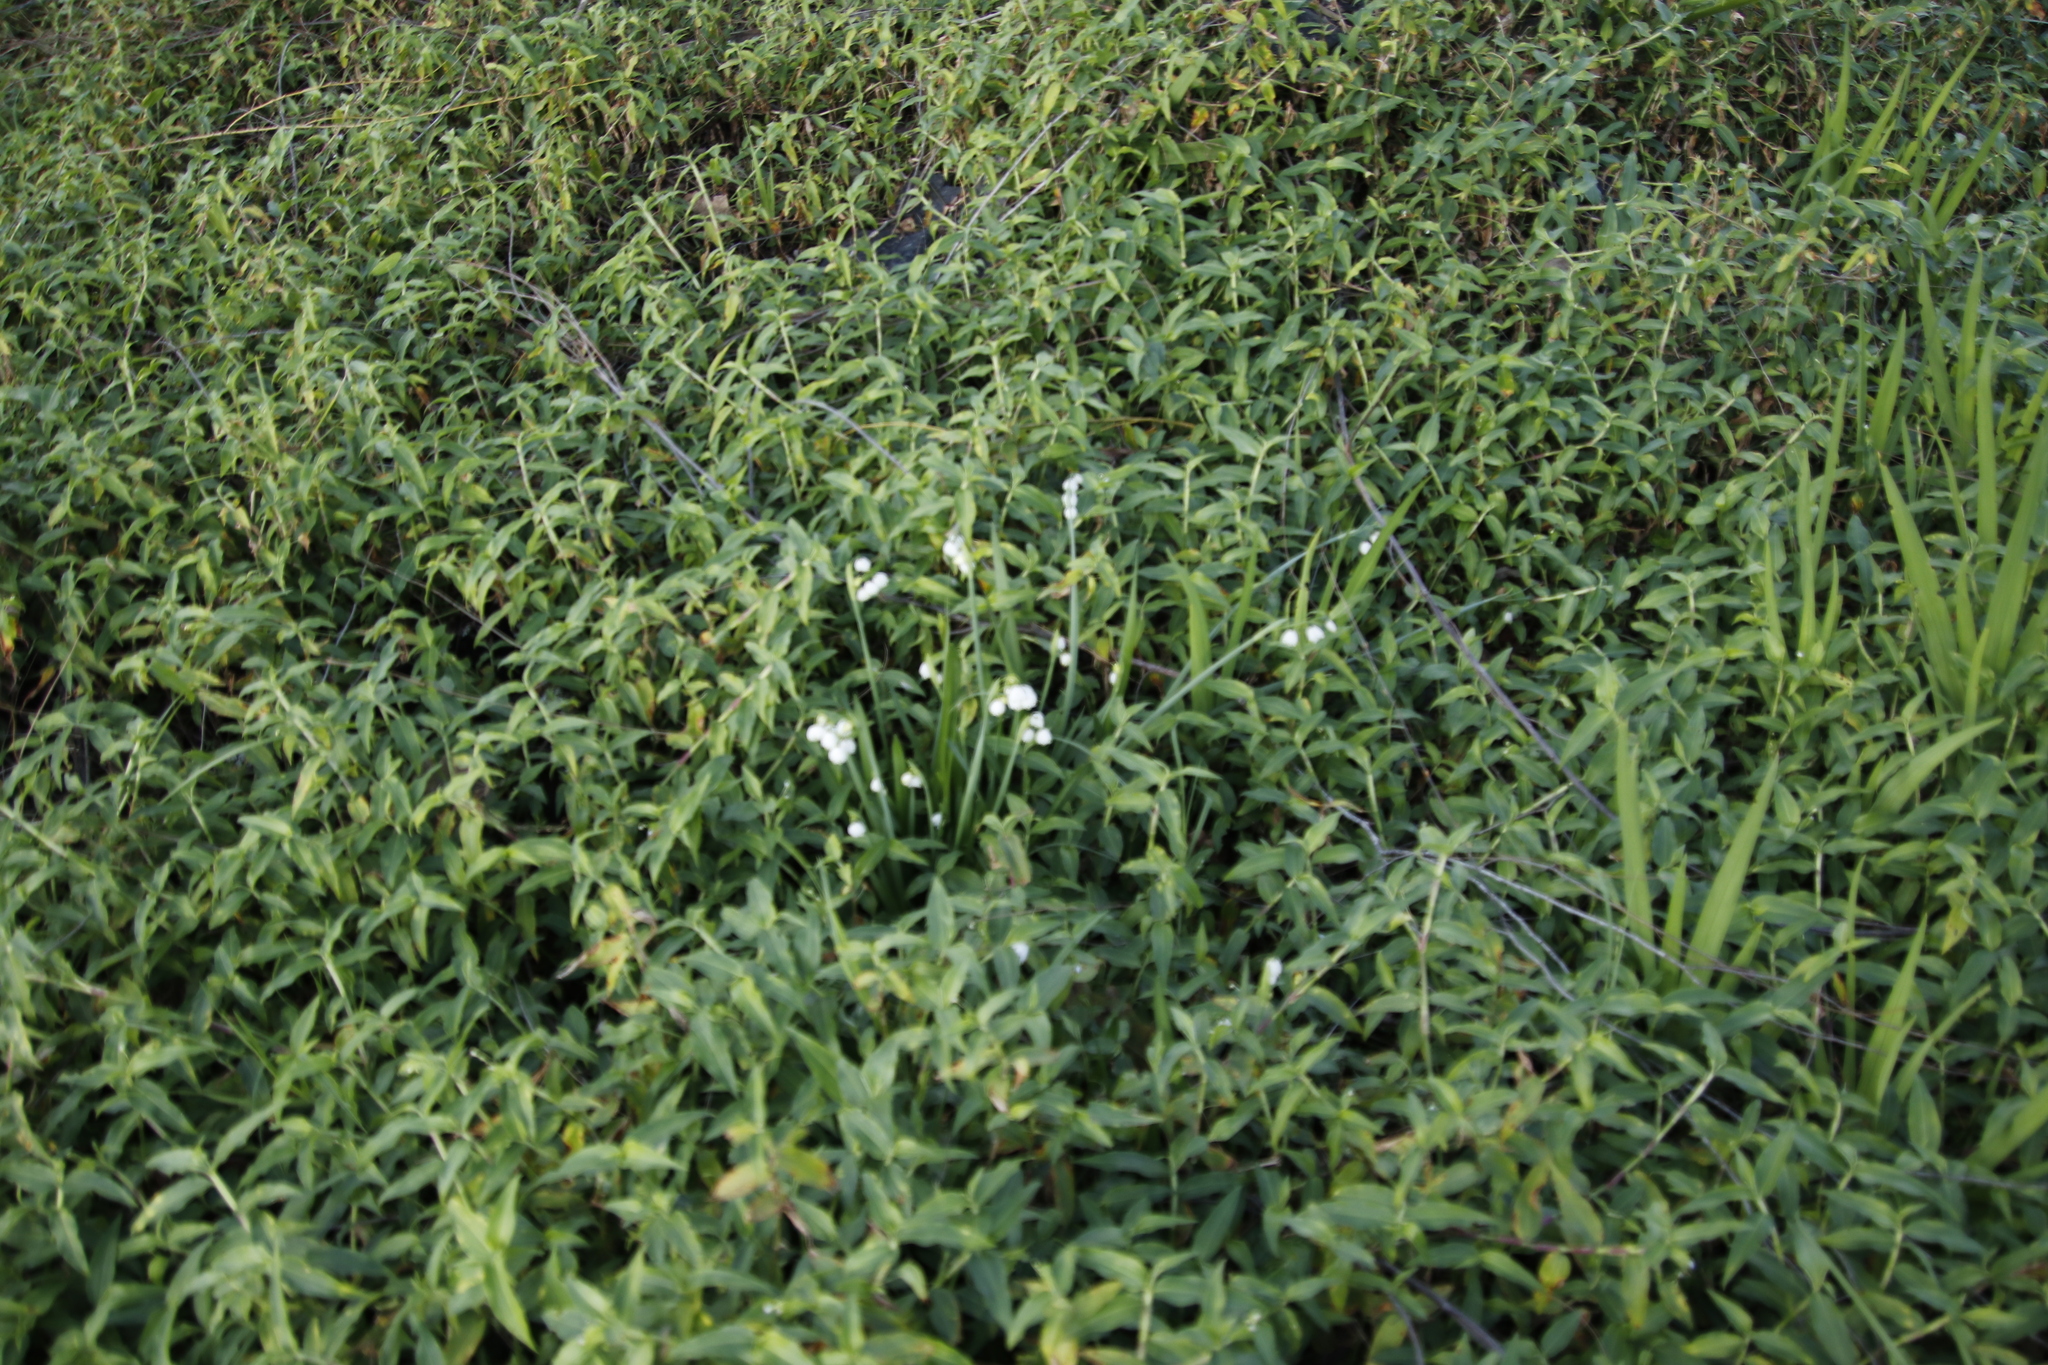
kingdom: Plantae
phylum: Tracheophyta
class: Liliopsida
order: Asparagales
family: Amaryllidaceae
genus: Leucojum
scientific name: Leucojum aestivum
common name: Summer snowflake
